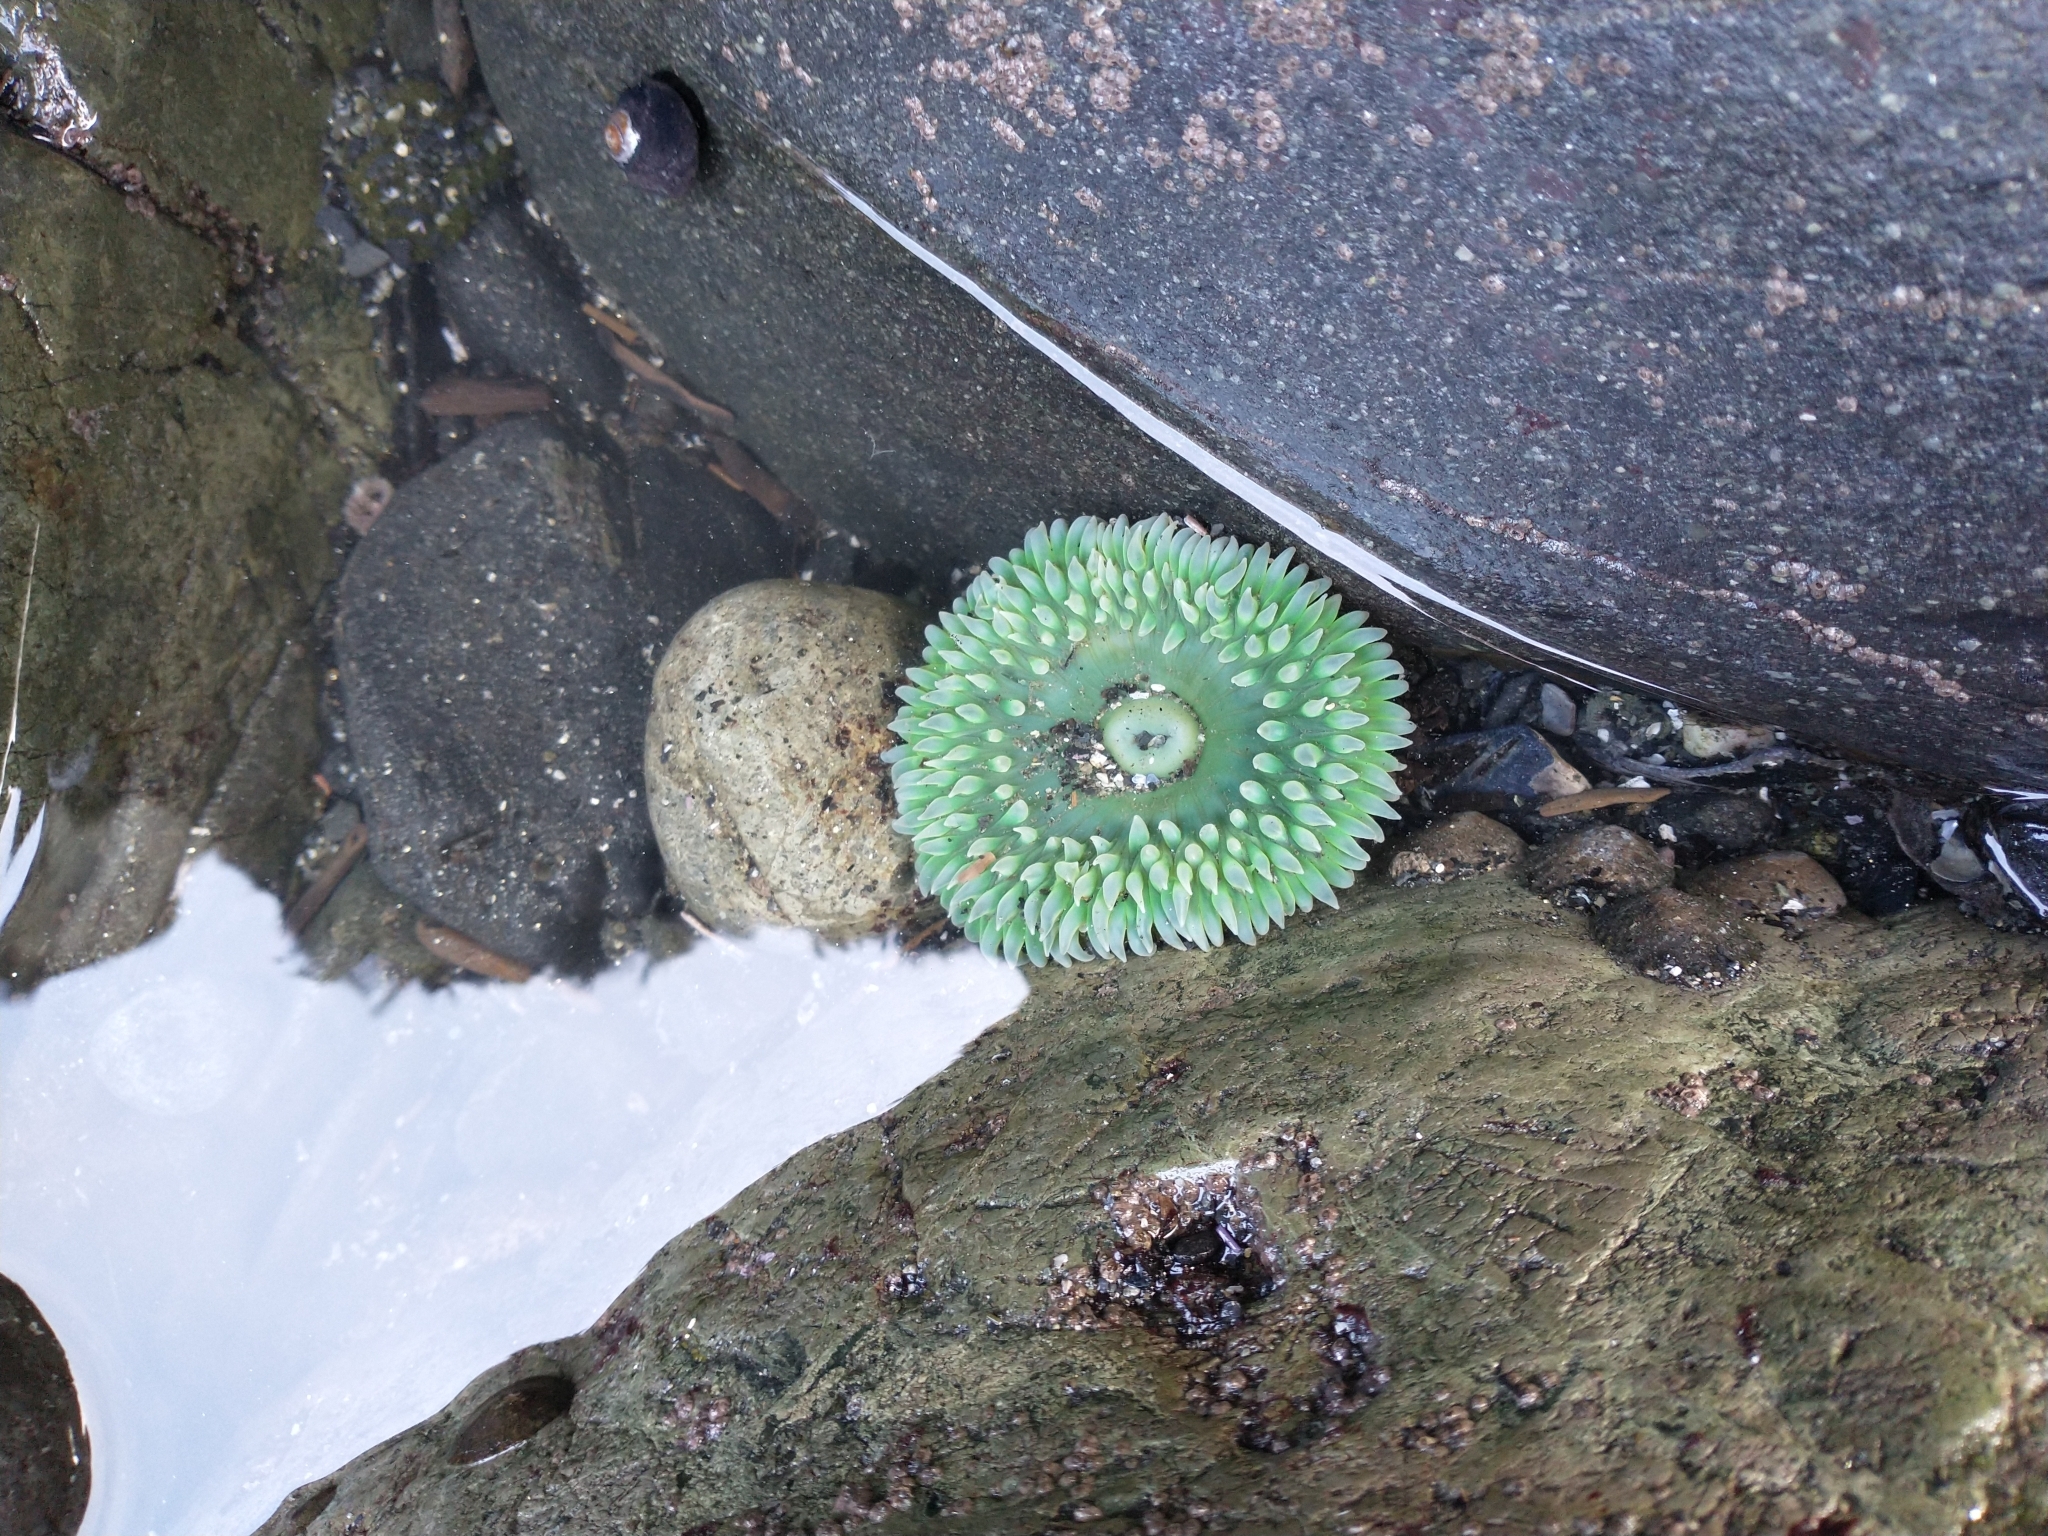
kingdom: Animalia
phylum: Cnidaria
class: Anthozoa
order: Actiniaria
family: Actiniidae
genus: Anthopleura
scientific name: Anthopleura xanthogrammica
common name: Giant green anemone
